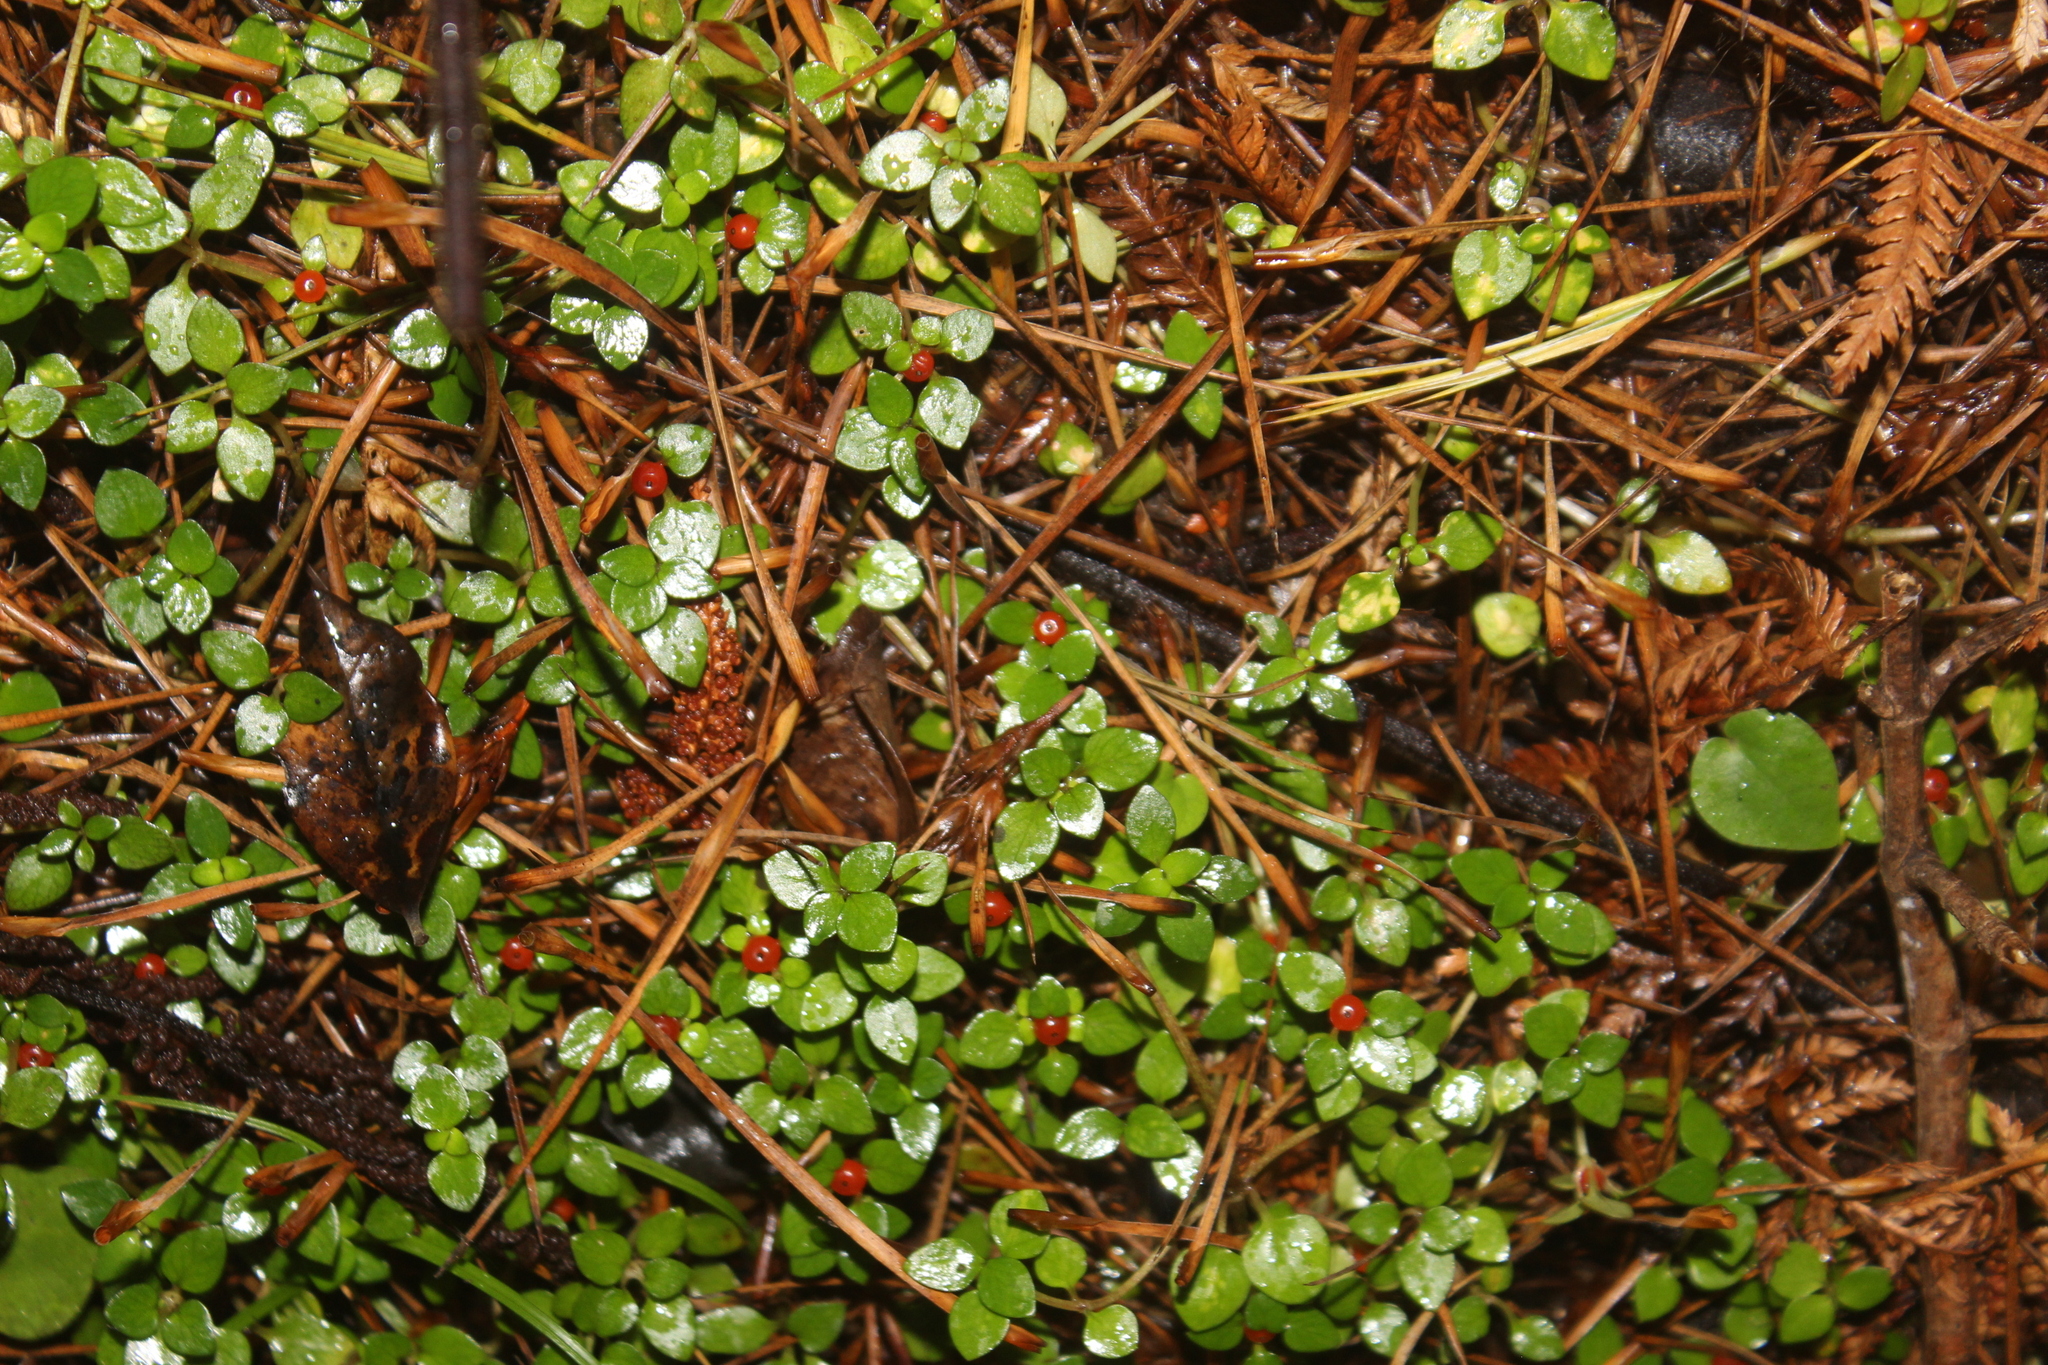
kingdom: Plantae
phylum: Tracheophyta
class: Magnoliopsida
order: Gentianales
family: Rubiaceae
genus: Nertera
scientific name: Nertera granadensis
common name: Beadplant
